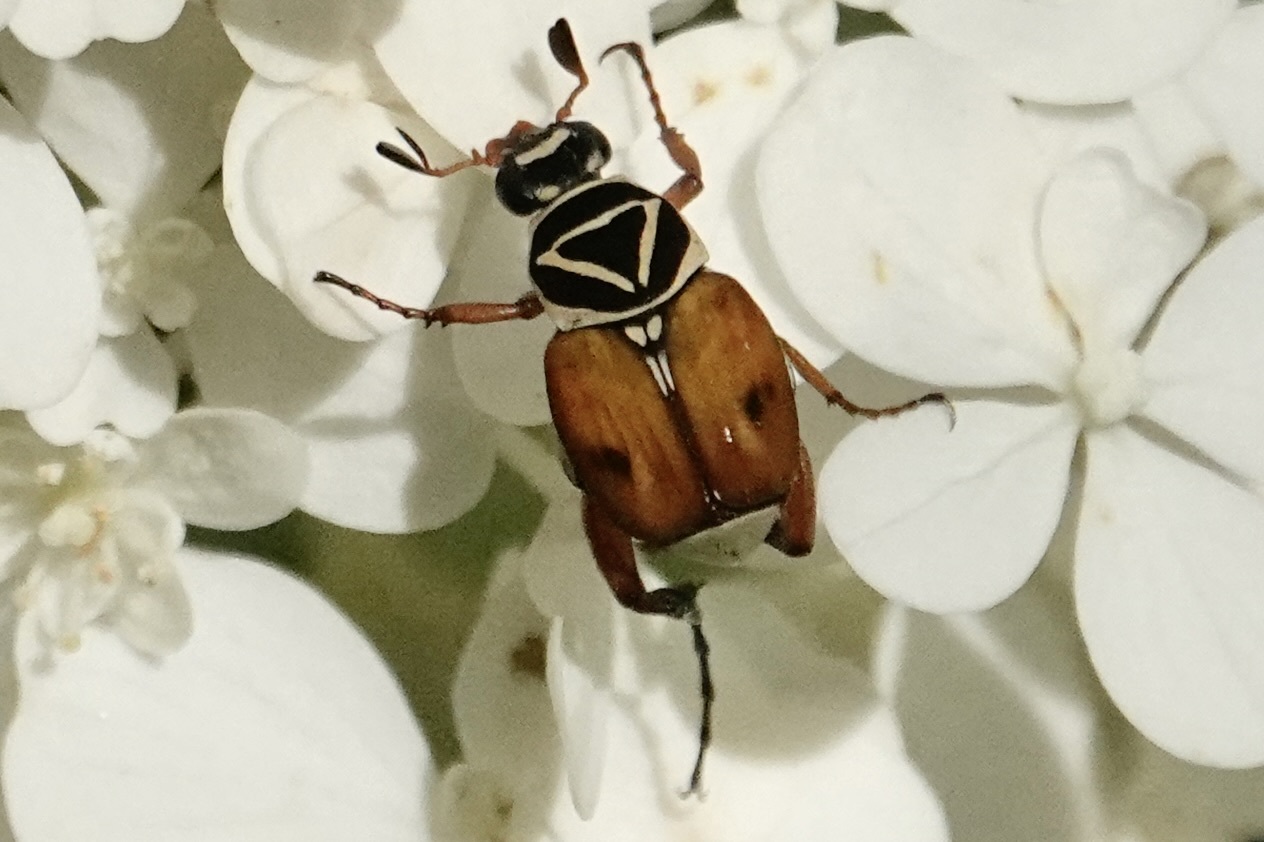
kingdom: Animalia
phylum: Arthropoda
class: Insecta
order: Coleoptera
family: Scarabaeidae
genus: Trigonopeltastes
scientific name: Trigonopeltastes delta
